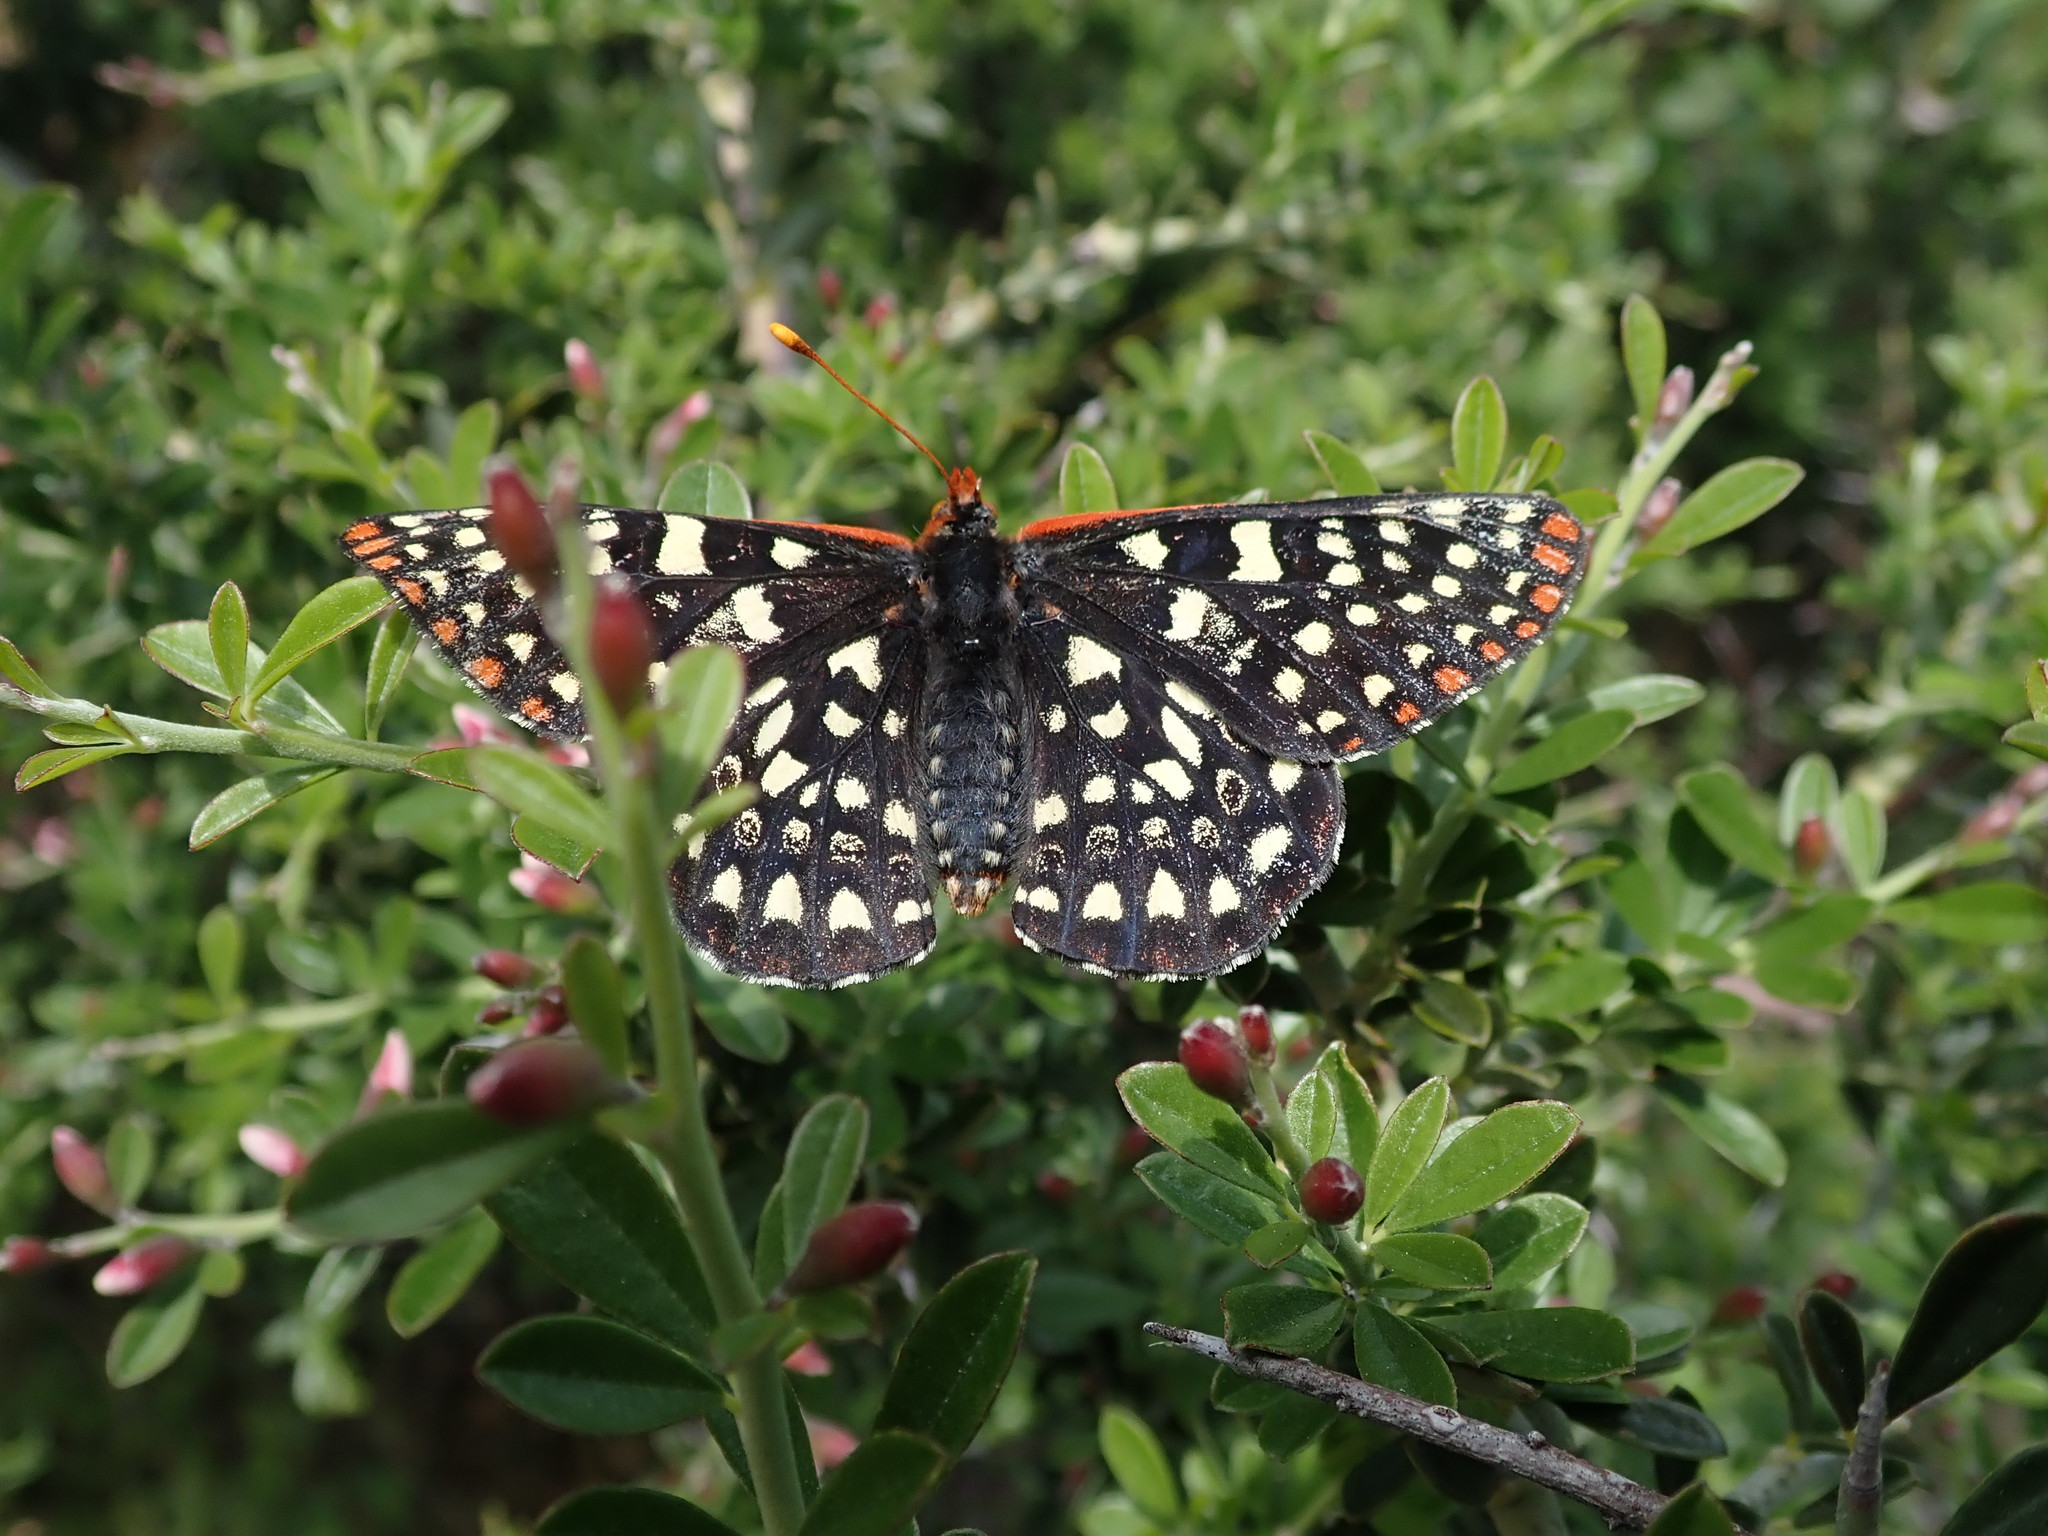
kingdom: Animalia
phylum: Arthropoda
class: Insecta
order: Lepidoptera
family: Nymphalidae
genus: Occidryas
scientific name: Occidryas chalcedona
